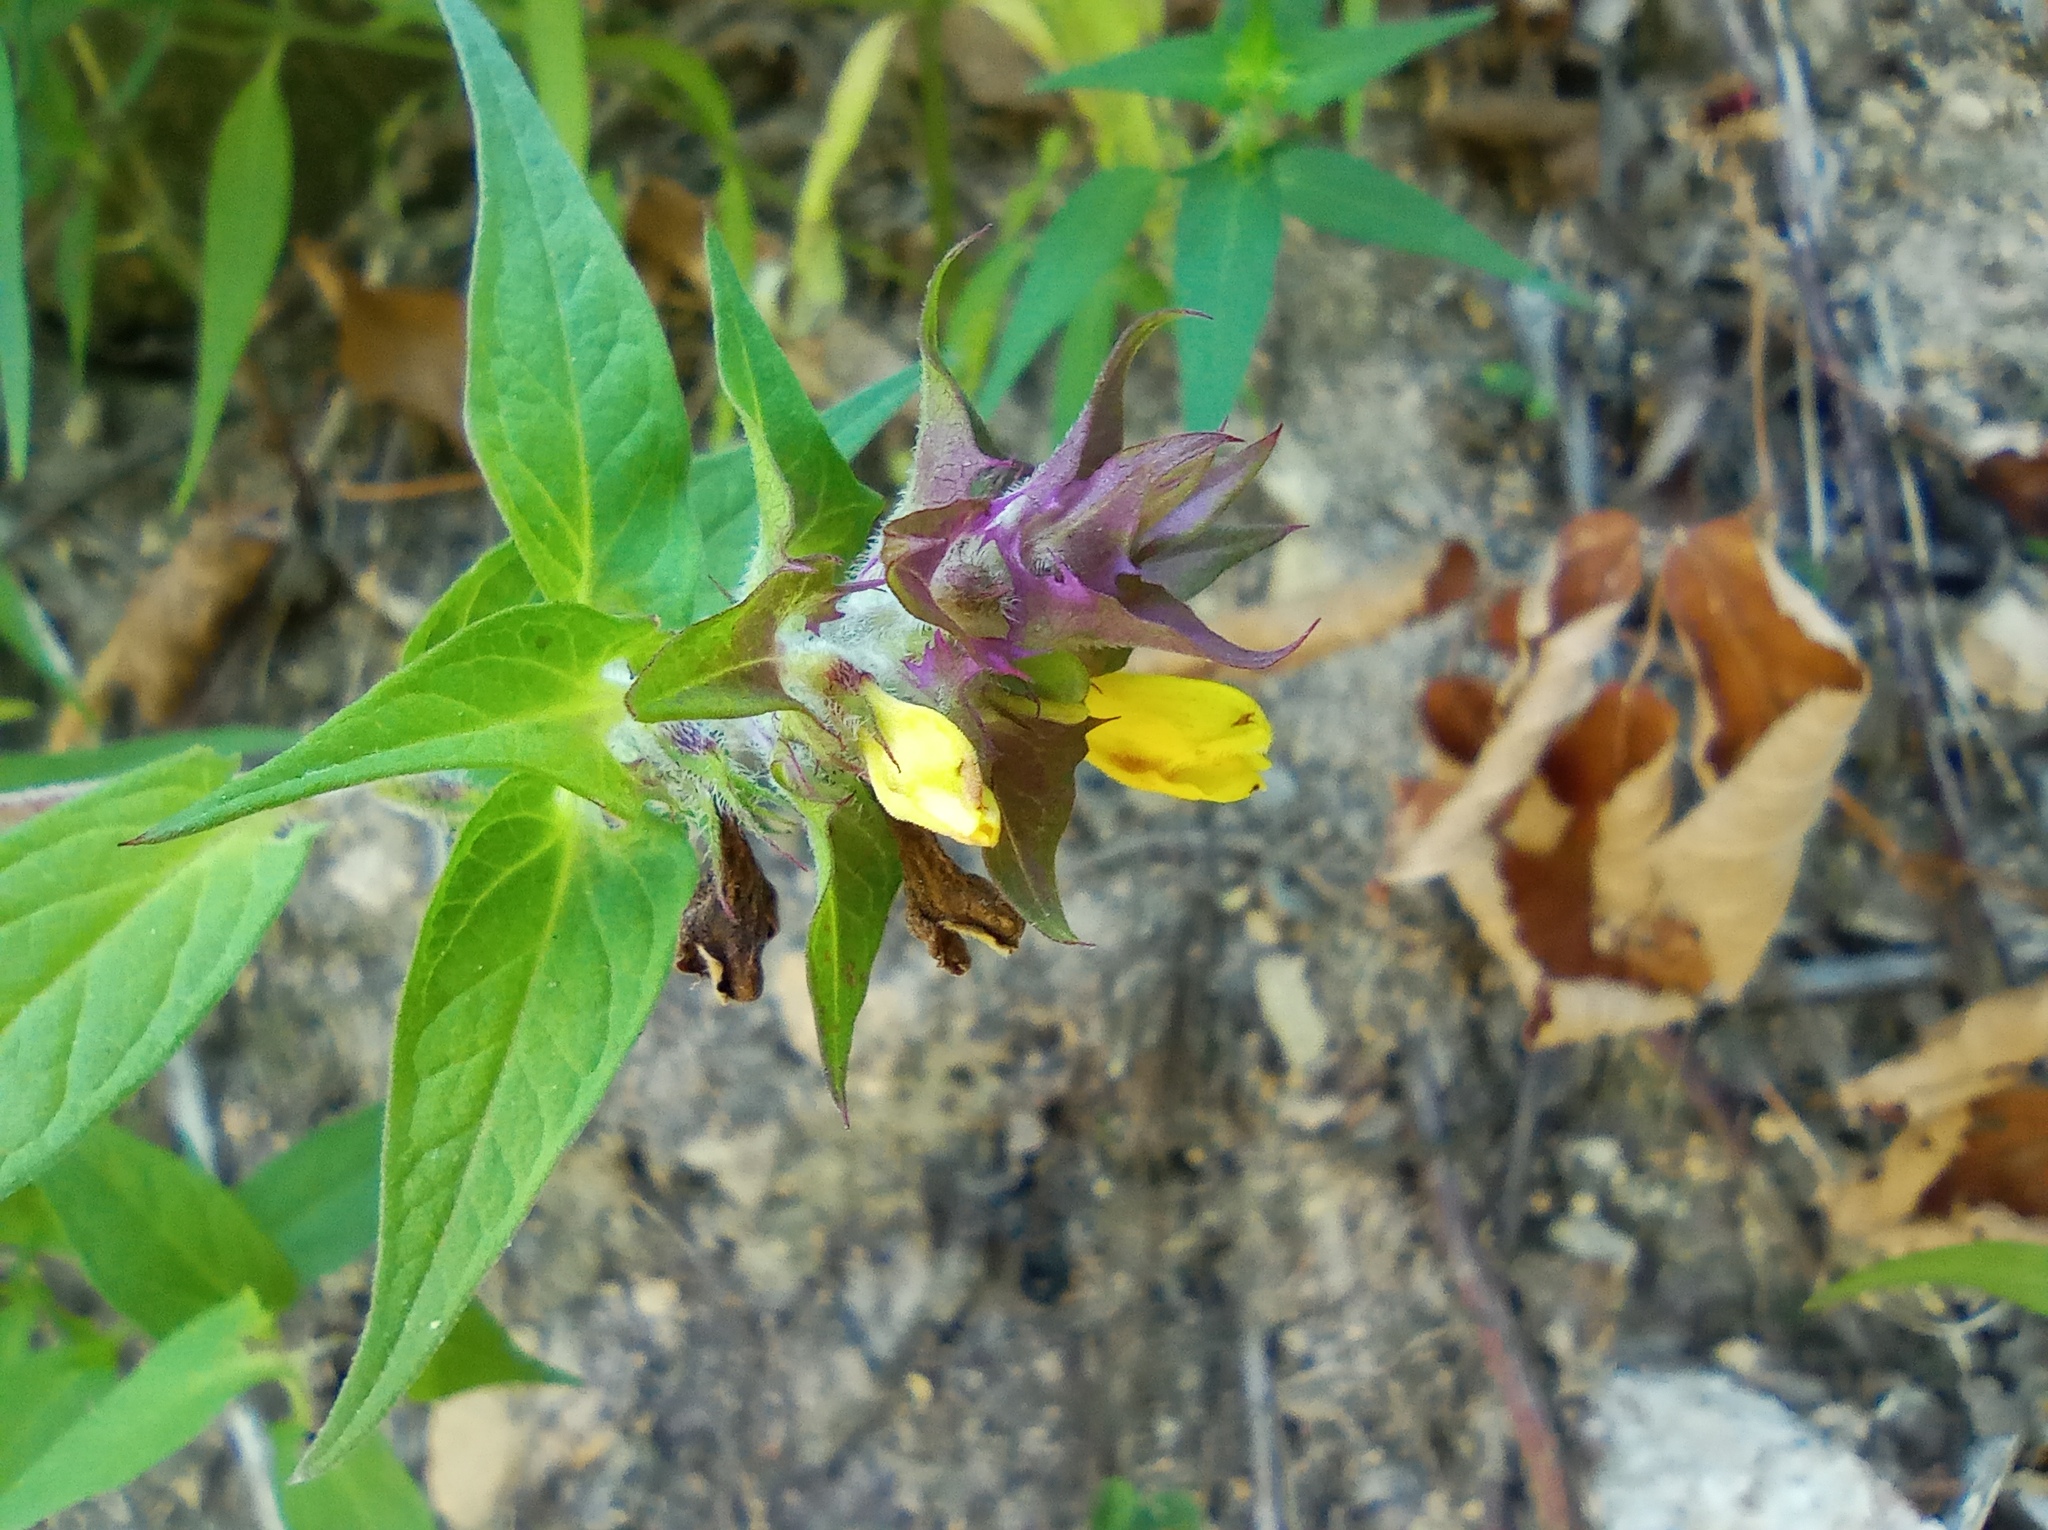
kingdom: Plantae
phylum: Tracheophyta
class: Magnoliopsida
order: Lamiales
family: Orobanchaceae
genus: Melampyrum
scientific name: Melampyrum catalaunicum
